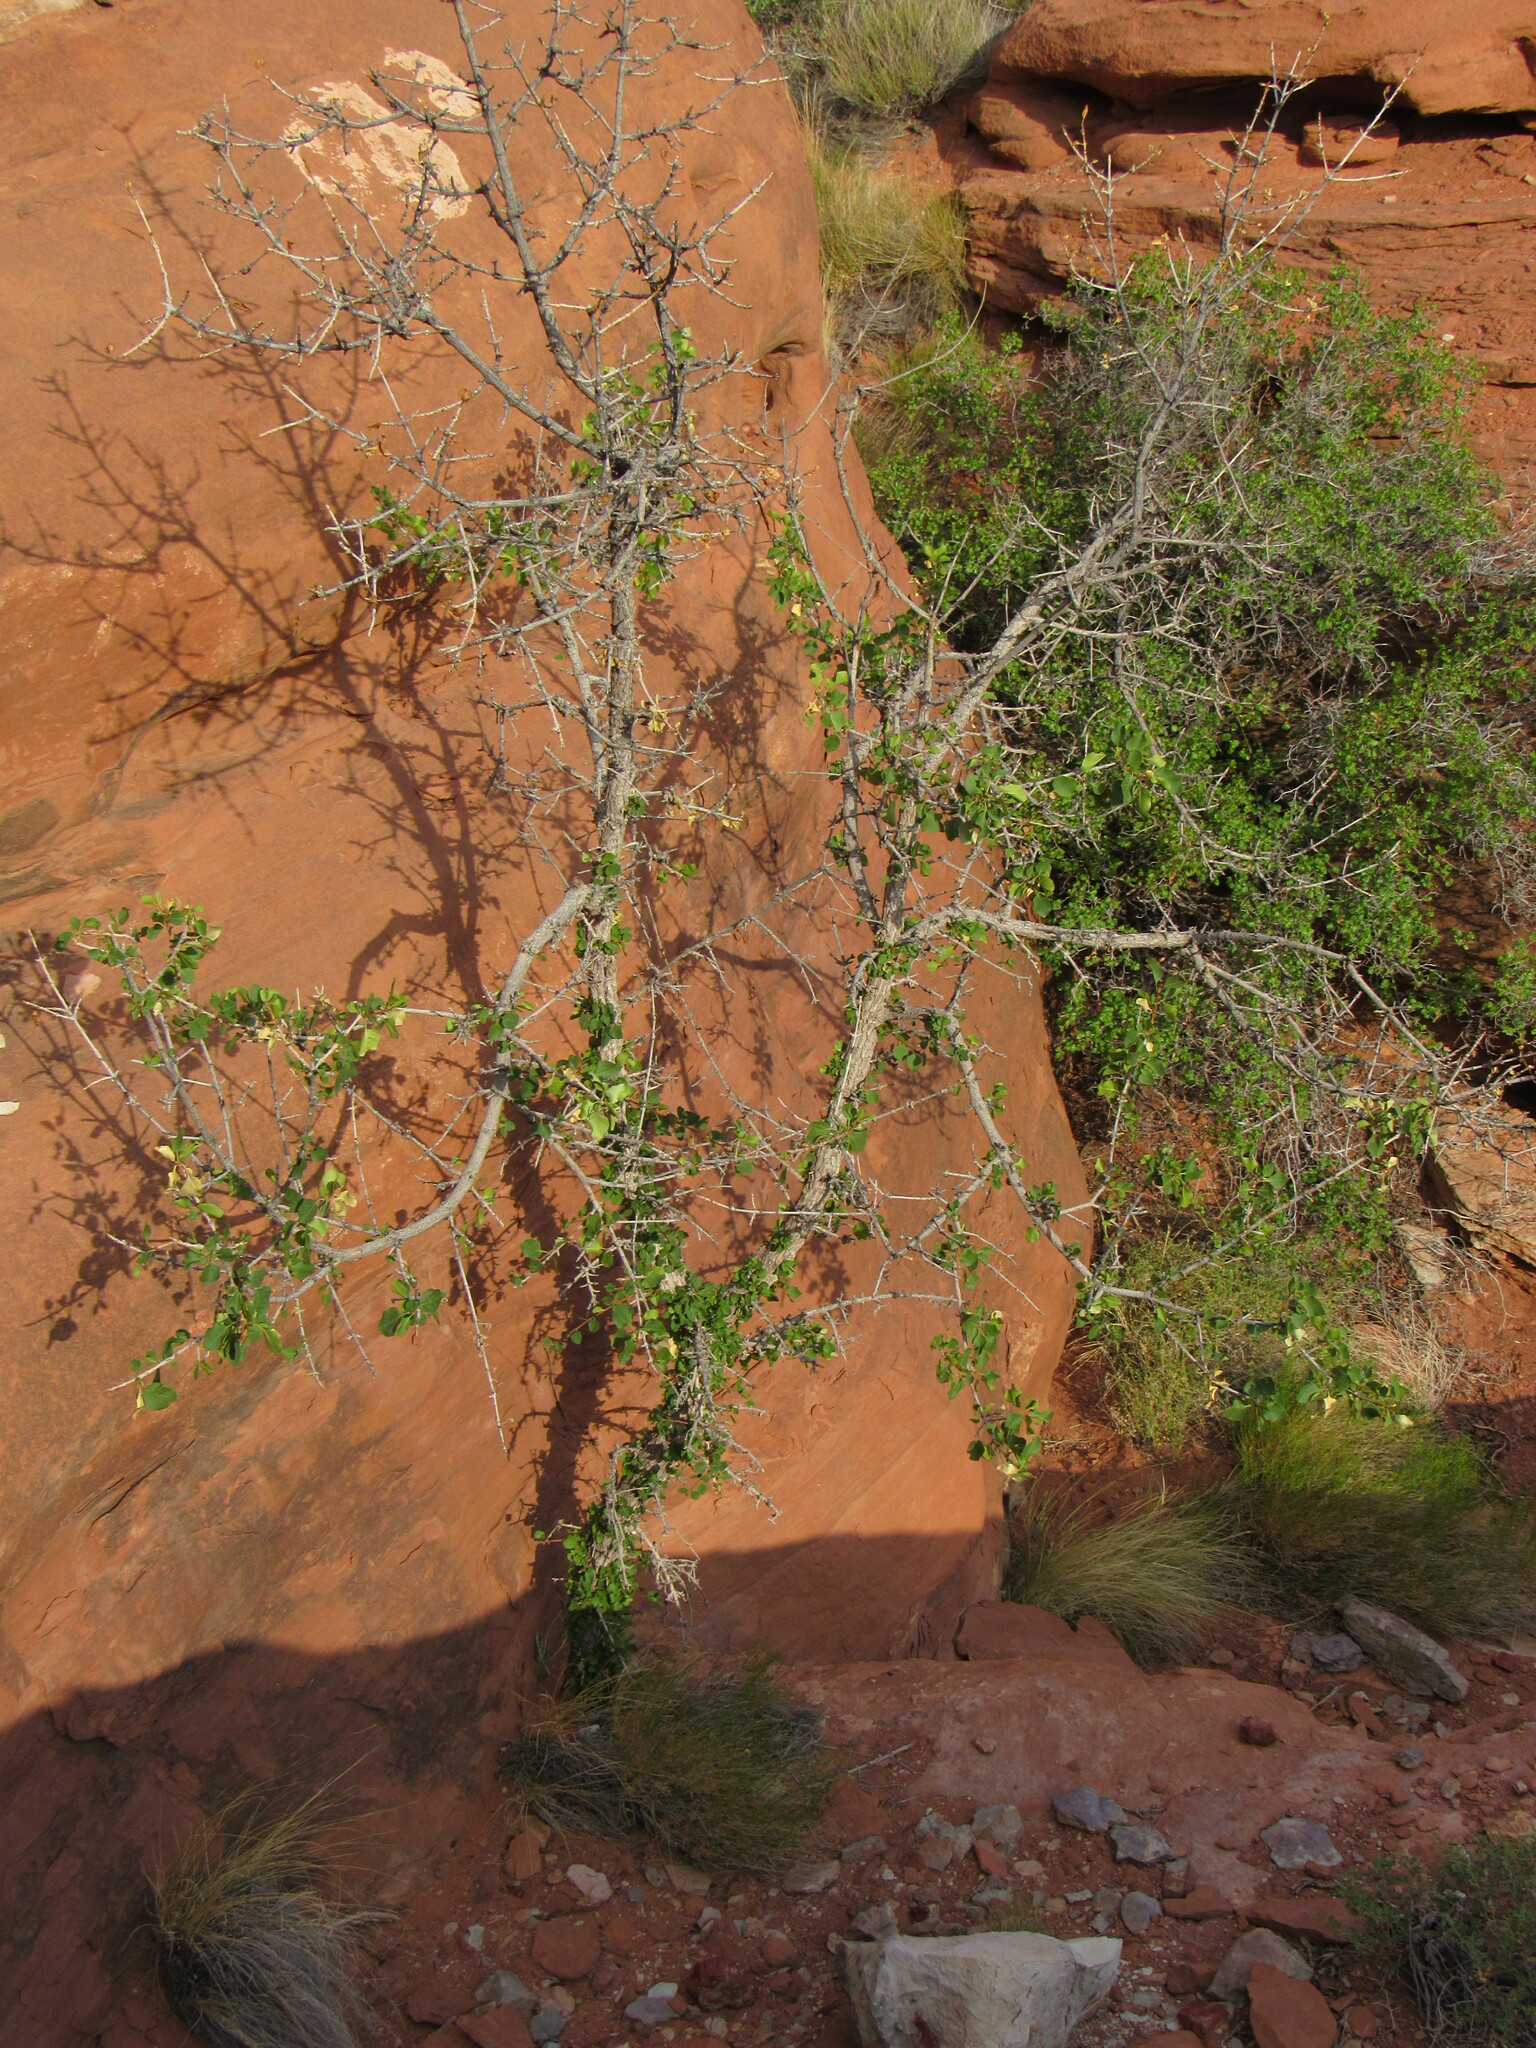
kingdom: Plantae
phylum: Tracheophyta
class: Magnoliopsida
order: Lamiales
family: Oleaceae
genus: Fraxinus
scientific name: Fraxinus anomala
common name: Utah ash
